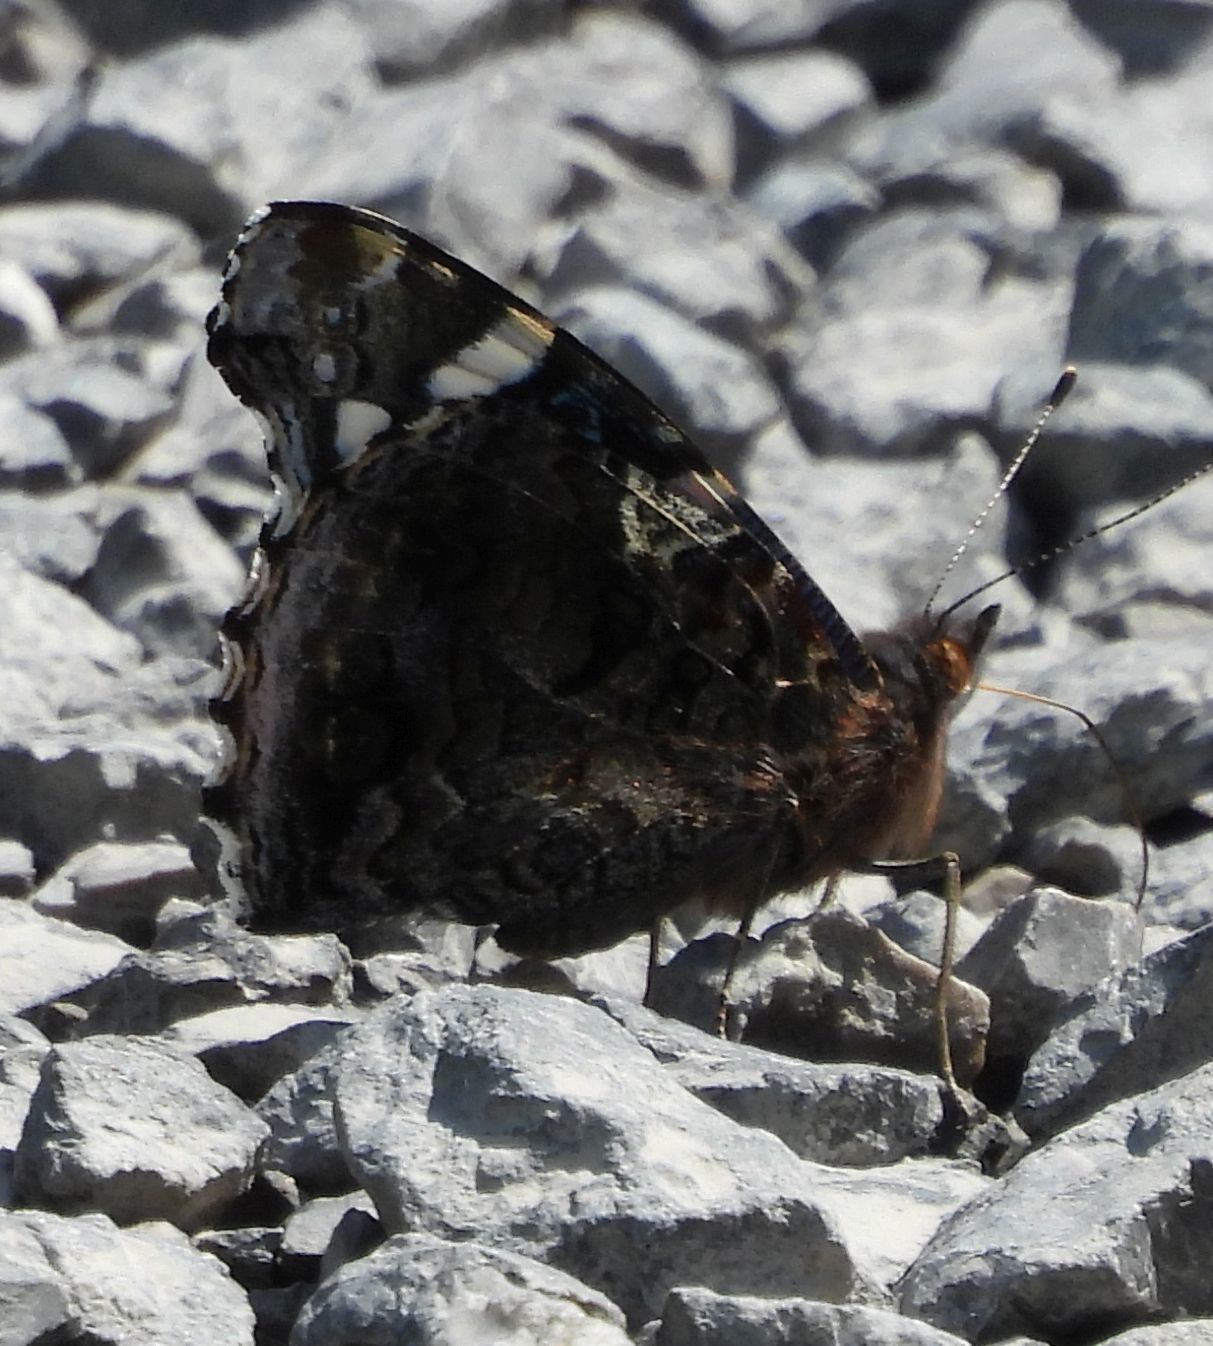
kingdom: Animalia
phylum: Arthropoda
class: Insecta
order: Lepidoptera
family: Nymphalidae
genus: Vanessa
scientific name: Vanessa atalanta
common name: Red admiral
